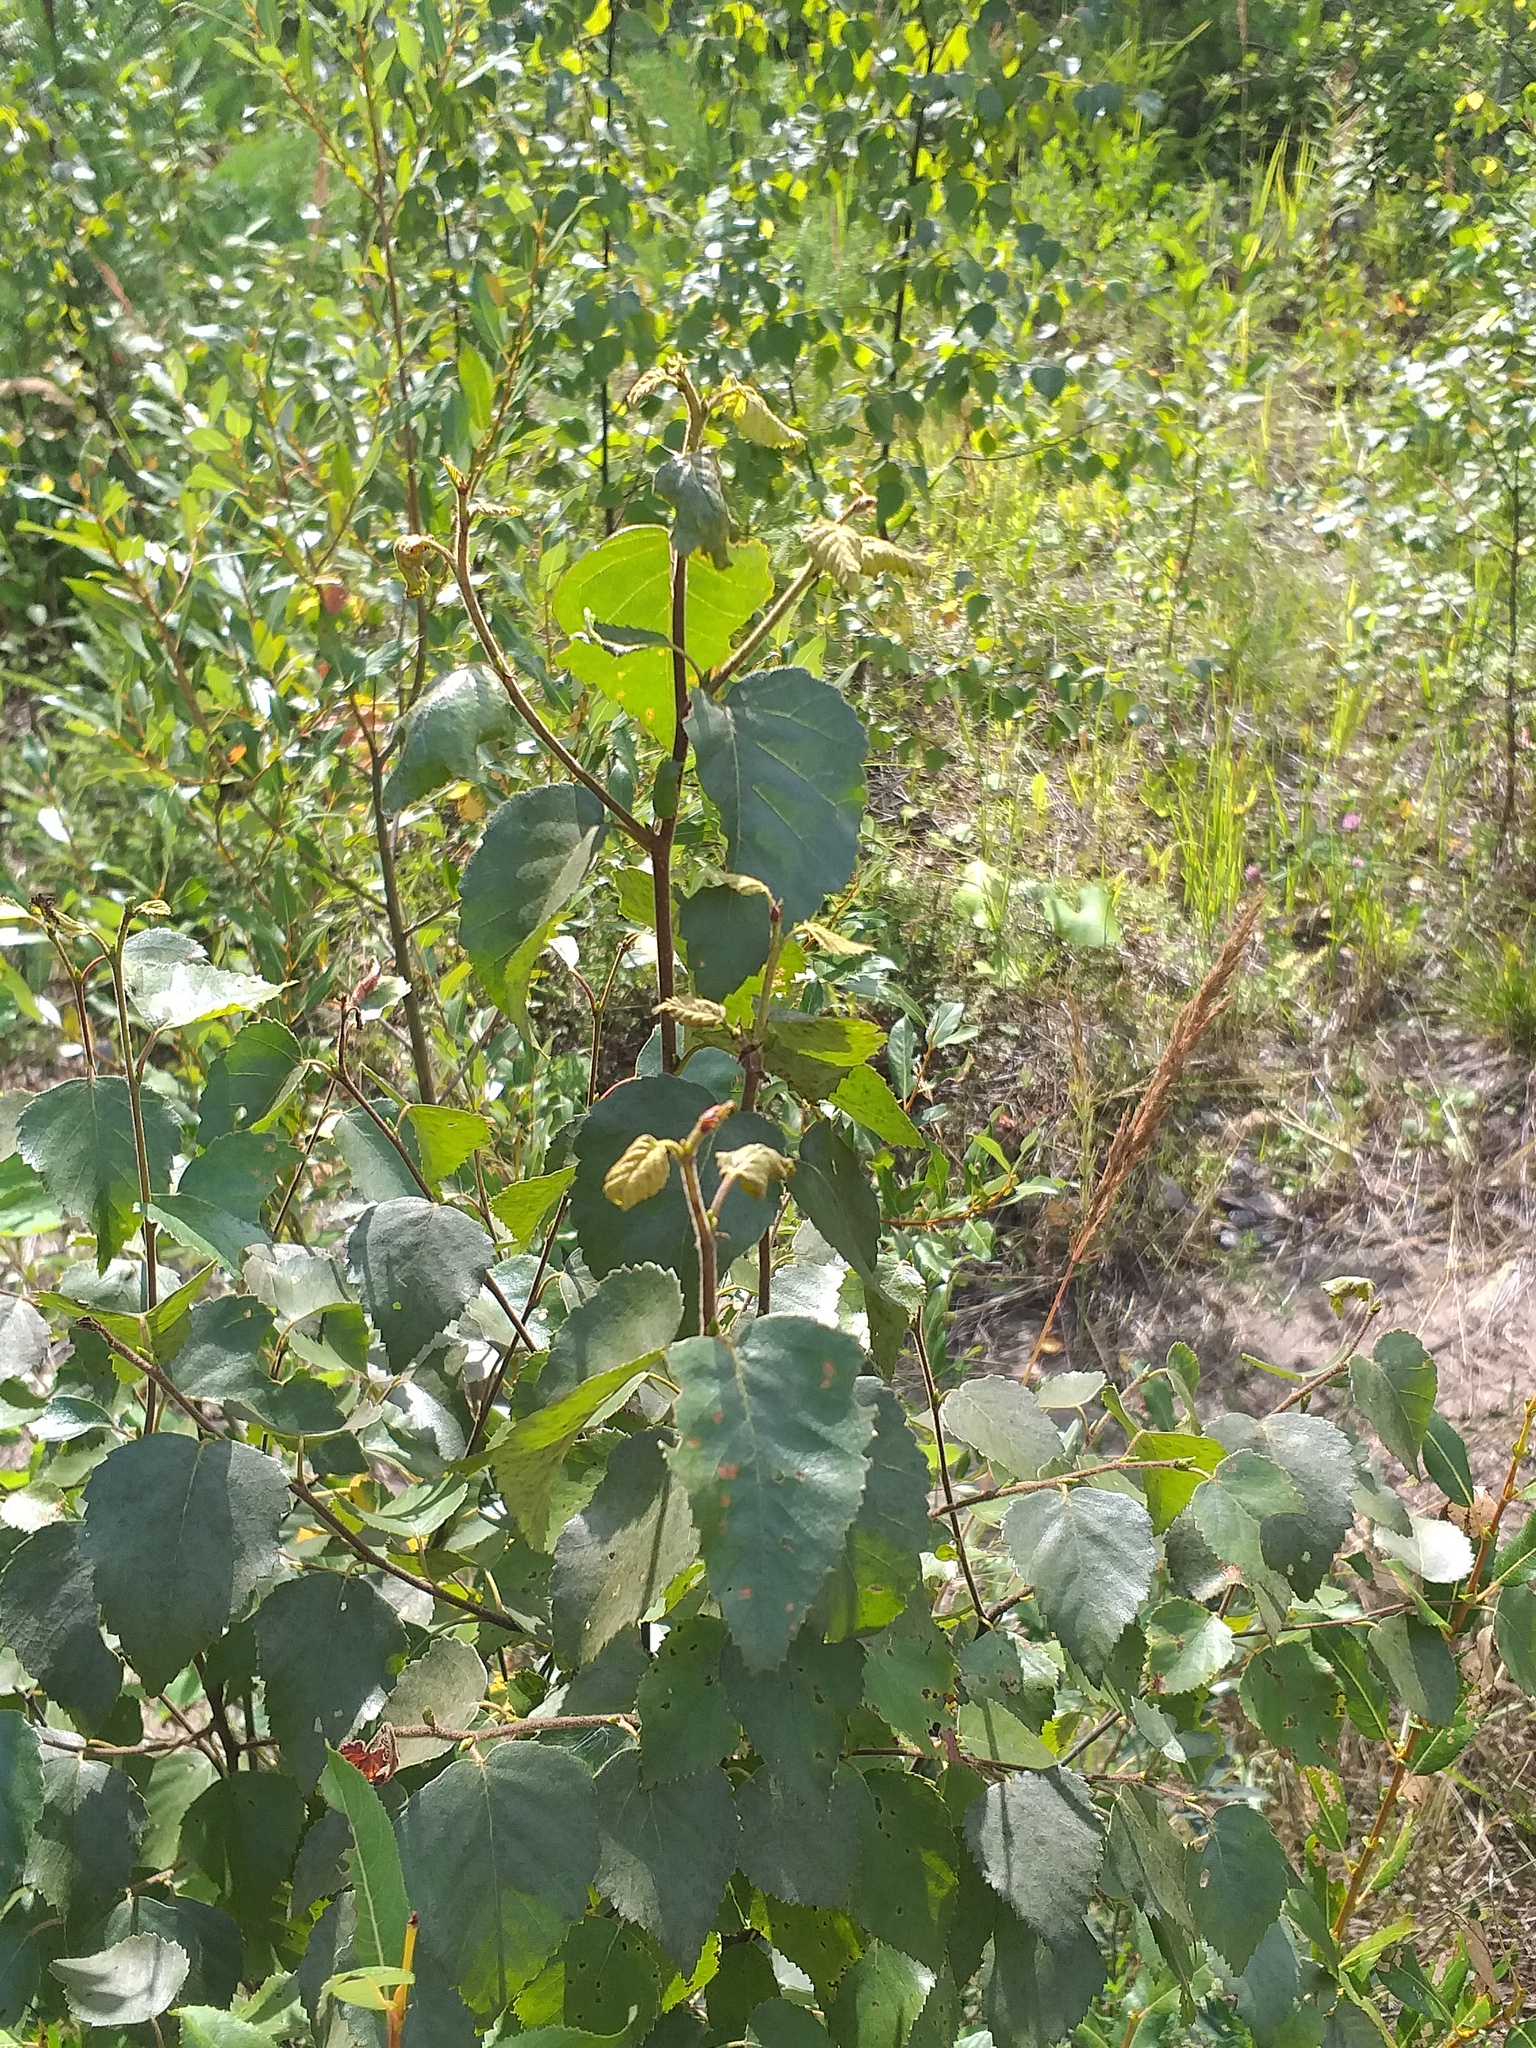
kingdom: Plantae
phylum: Tracheophyta
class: Magnoliopsida
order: Fagales
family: Betulaceae
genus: Betula
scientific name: Betula pubescens
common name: Downy birch
